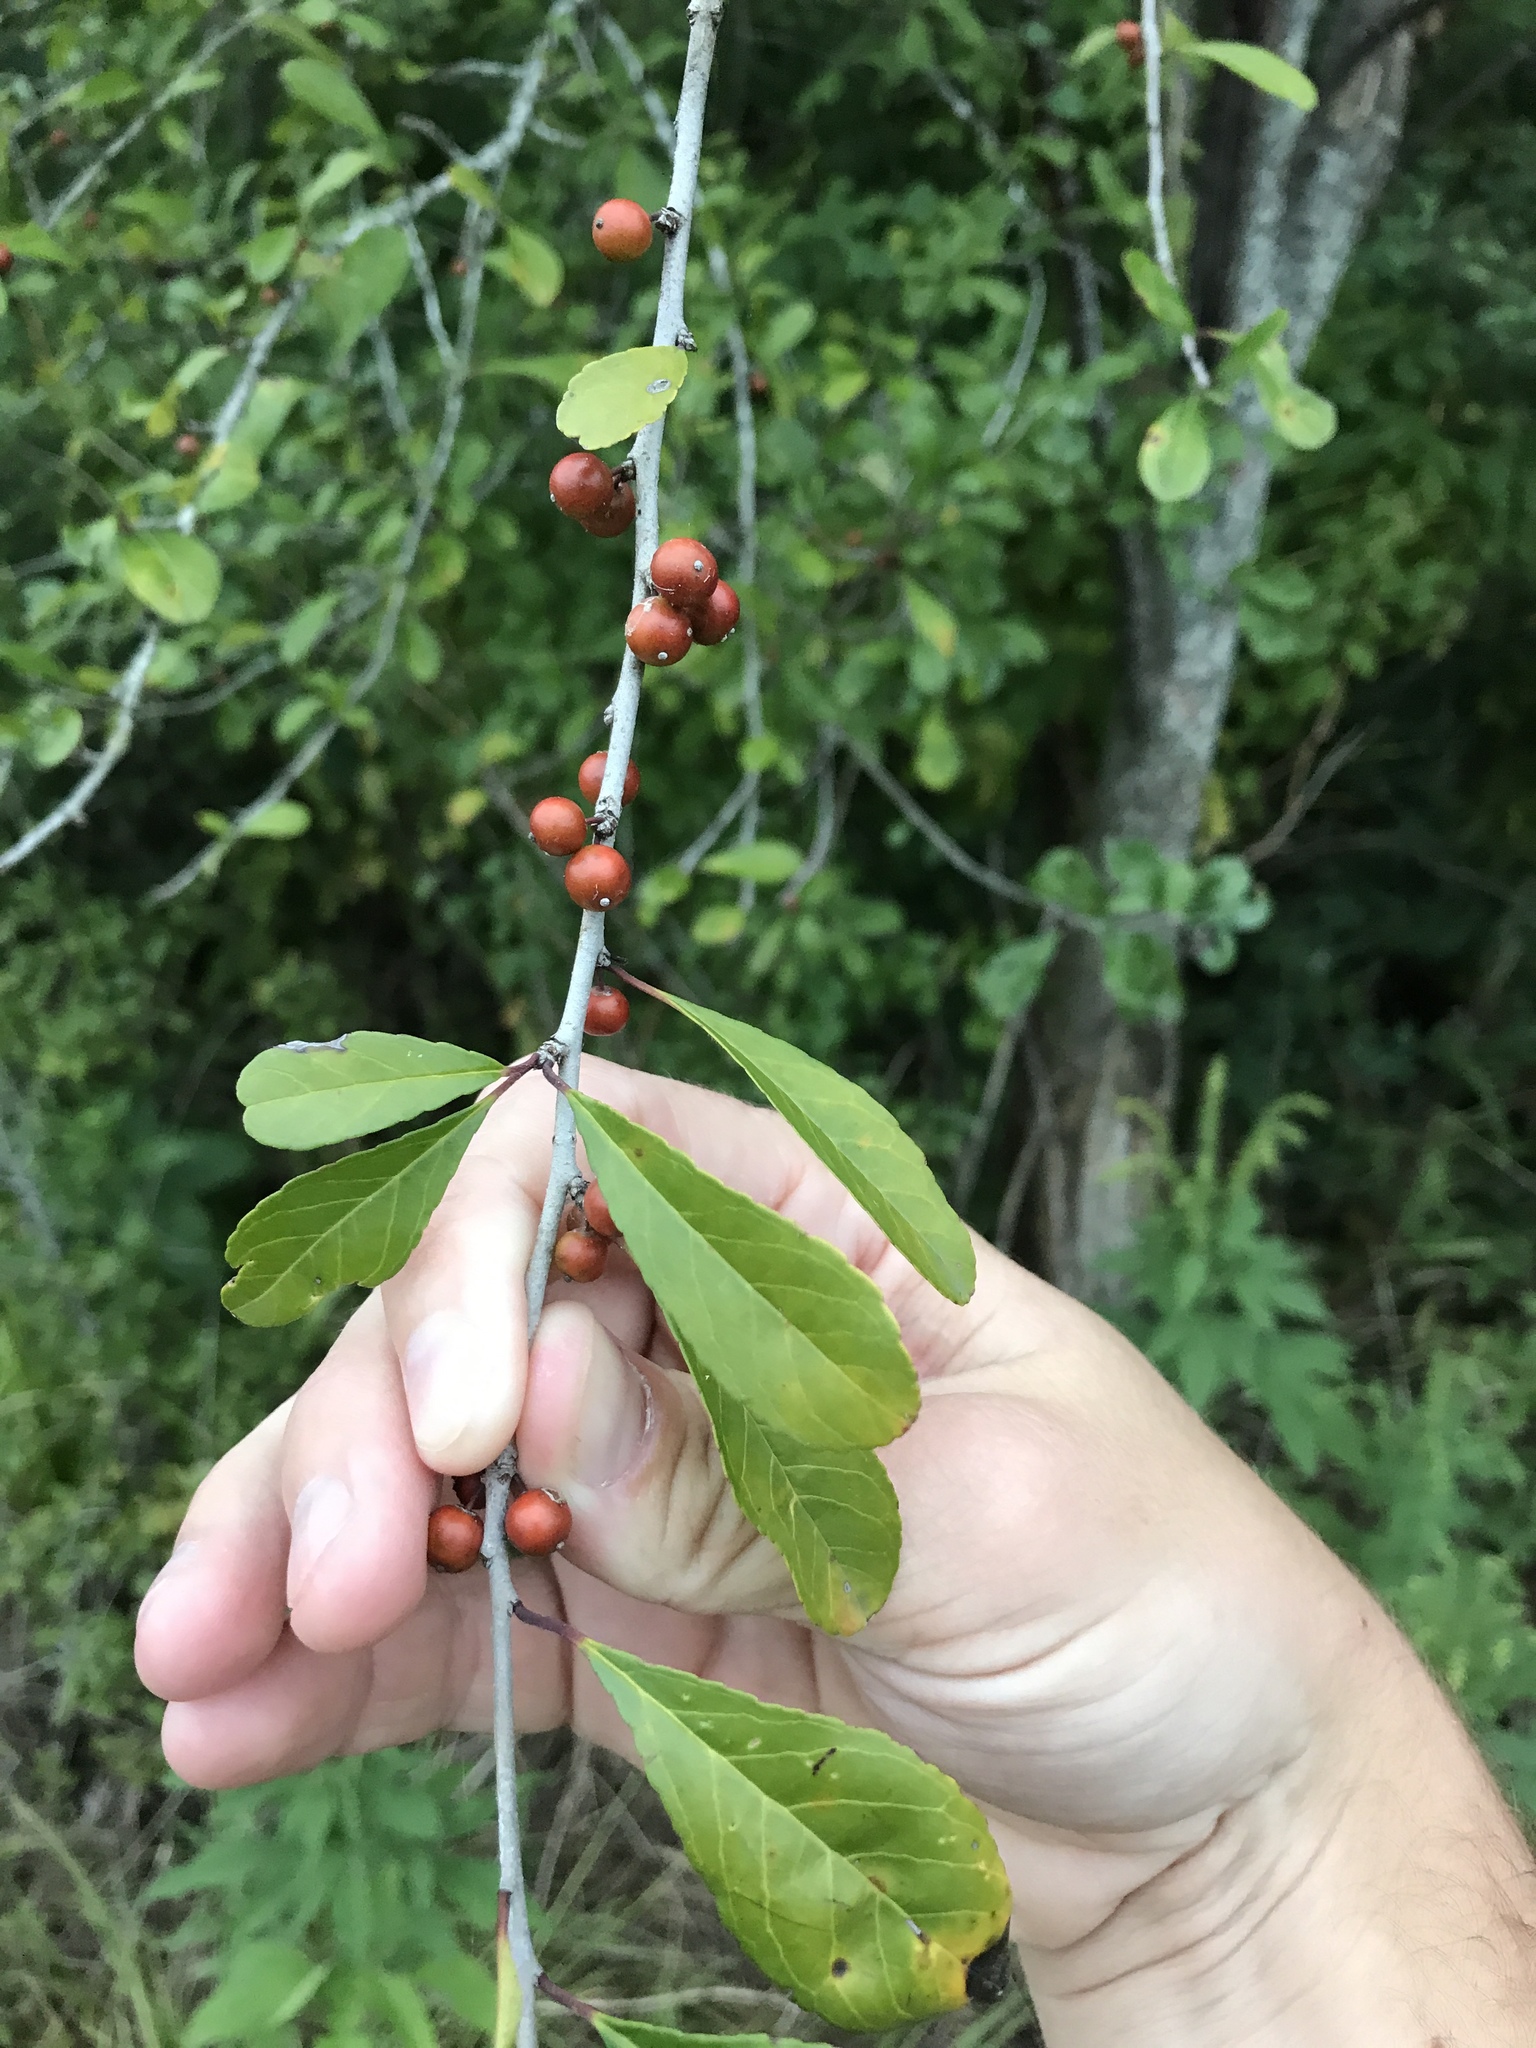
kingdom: Plantae
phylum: Tracheophyta
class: Magnoliopsida
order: Aquifoliales
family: Aquifoliaceae
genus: Ilex
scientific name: Ilex decidua
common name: Possum-haw
